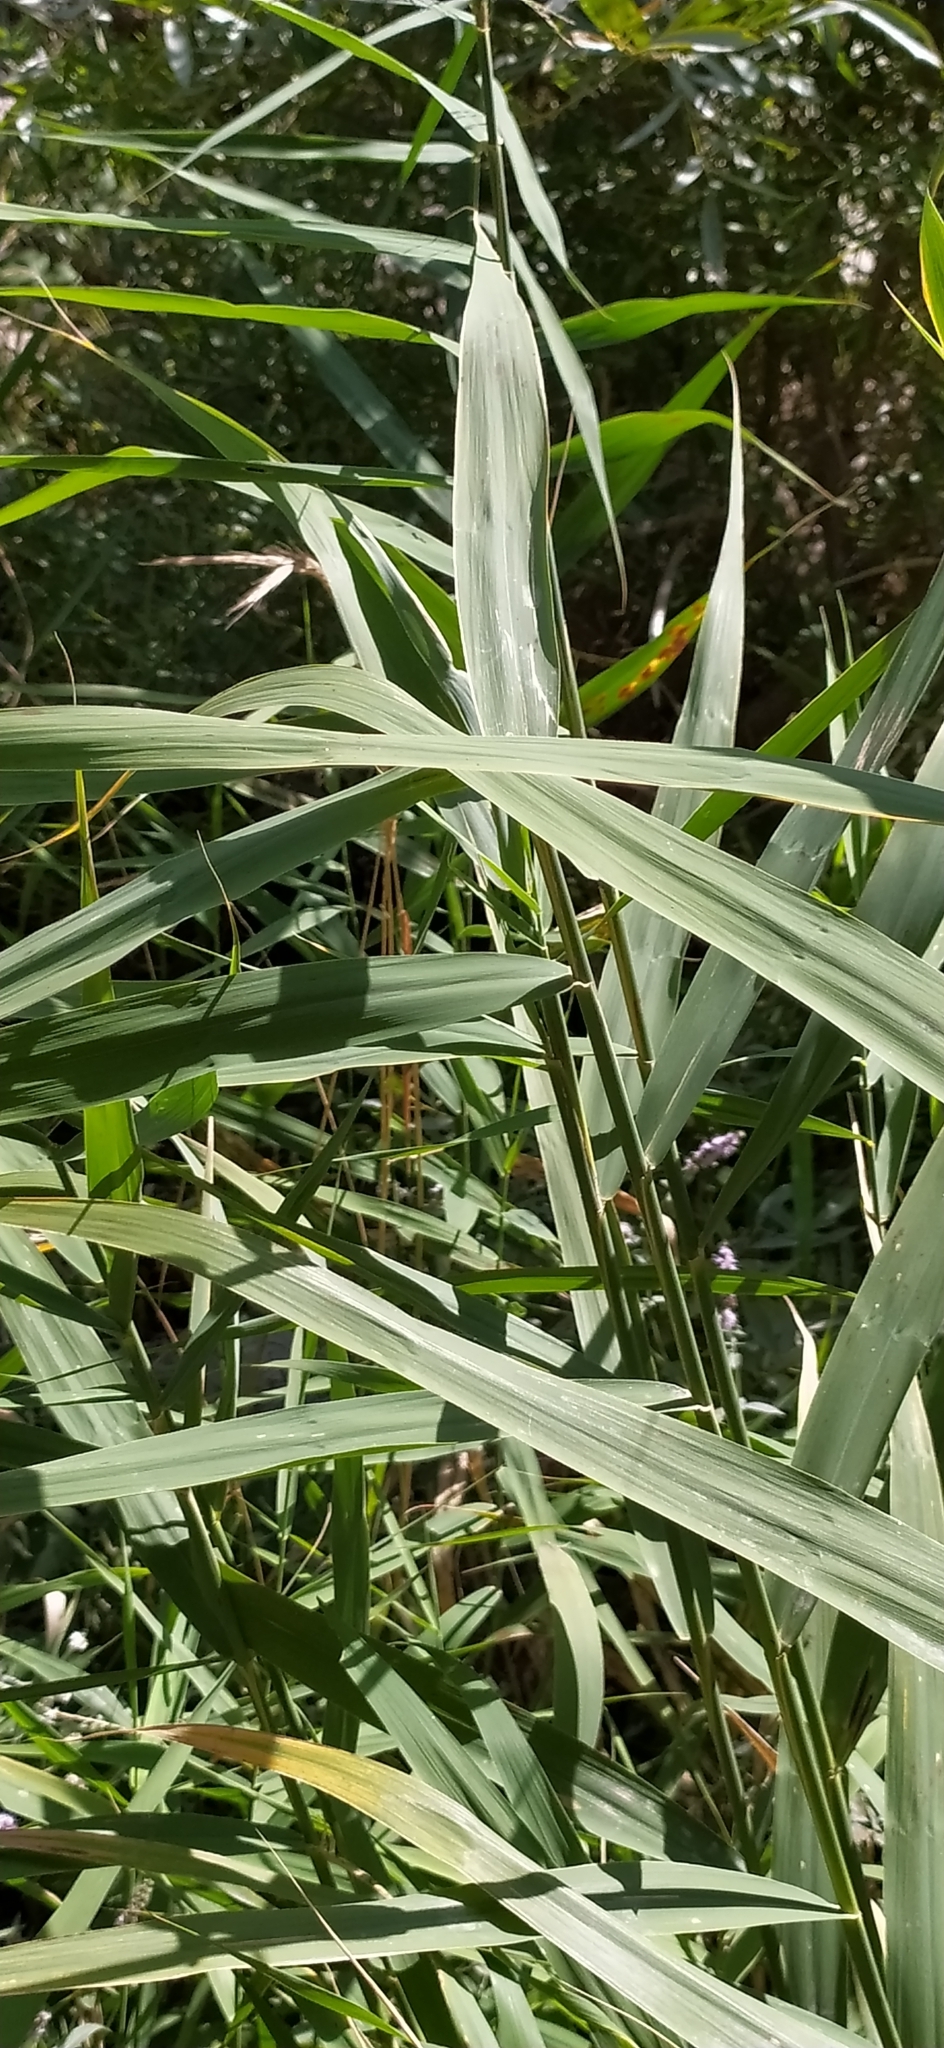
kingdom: Plantae
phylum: Tracheophyta
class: Liliopsida
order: Poales
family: Poaceae
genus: Phragmites
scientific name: Phragmites australis
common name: Common reed
